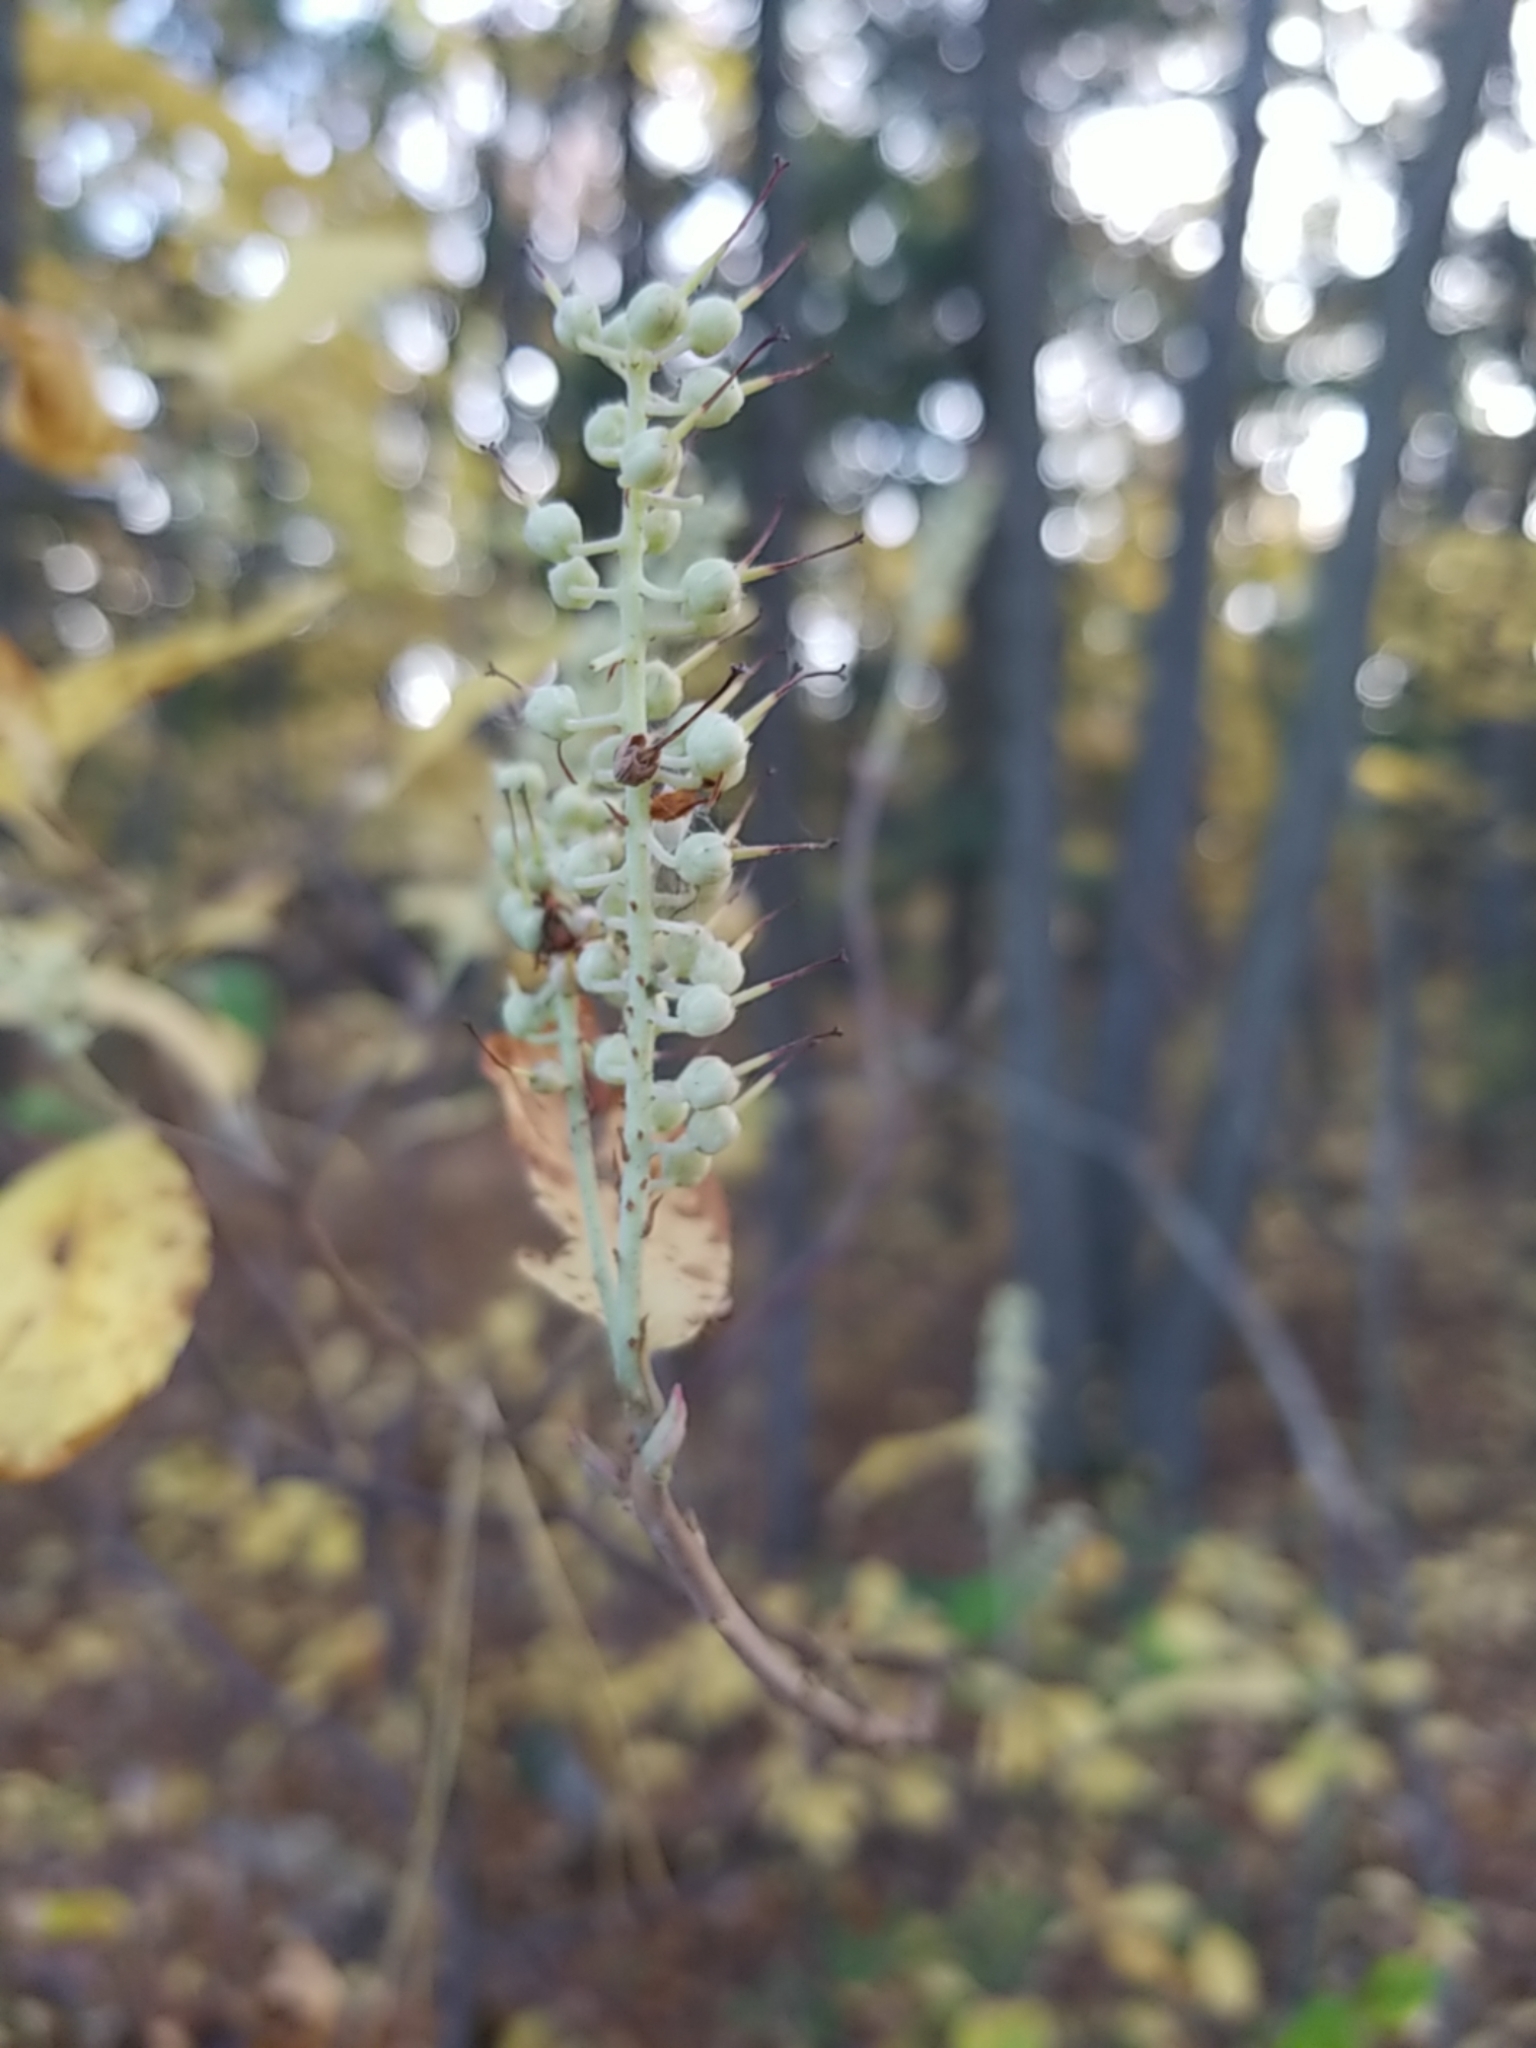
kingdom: Plantae
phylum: Tracheophyta
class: Magnoliopsida
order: Ericales
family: Clethraceae
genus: Clethra
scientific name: Clethra alnifolia
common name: Sweet pepperbush
